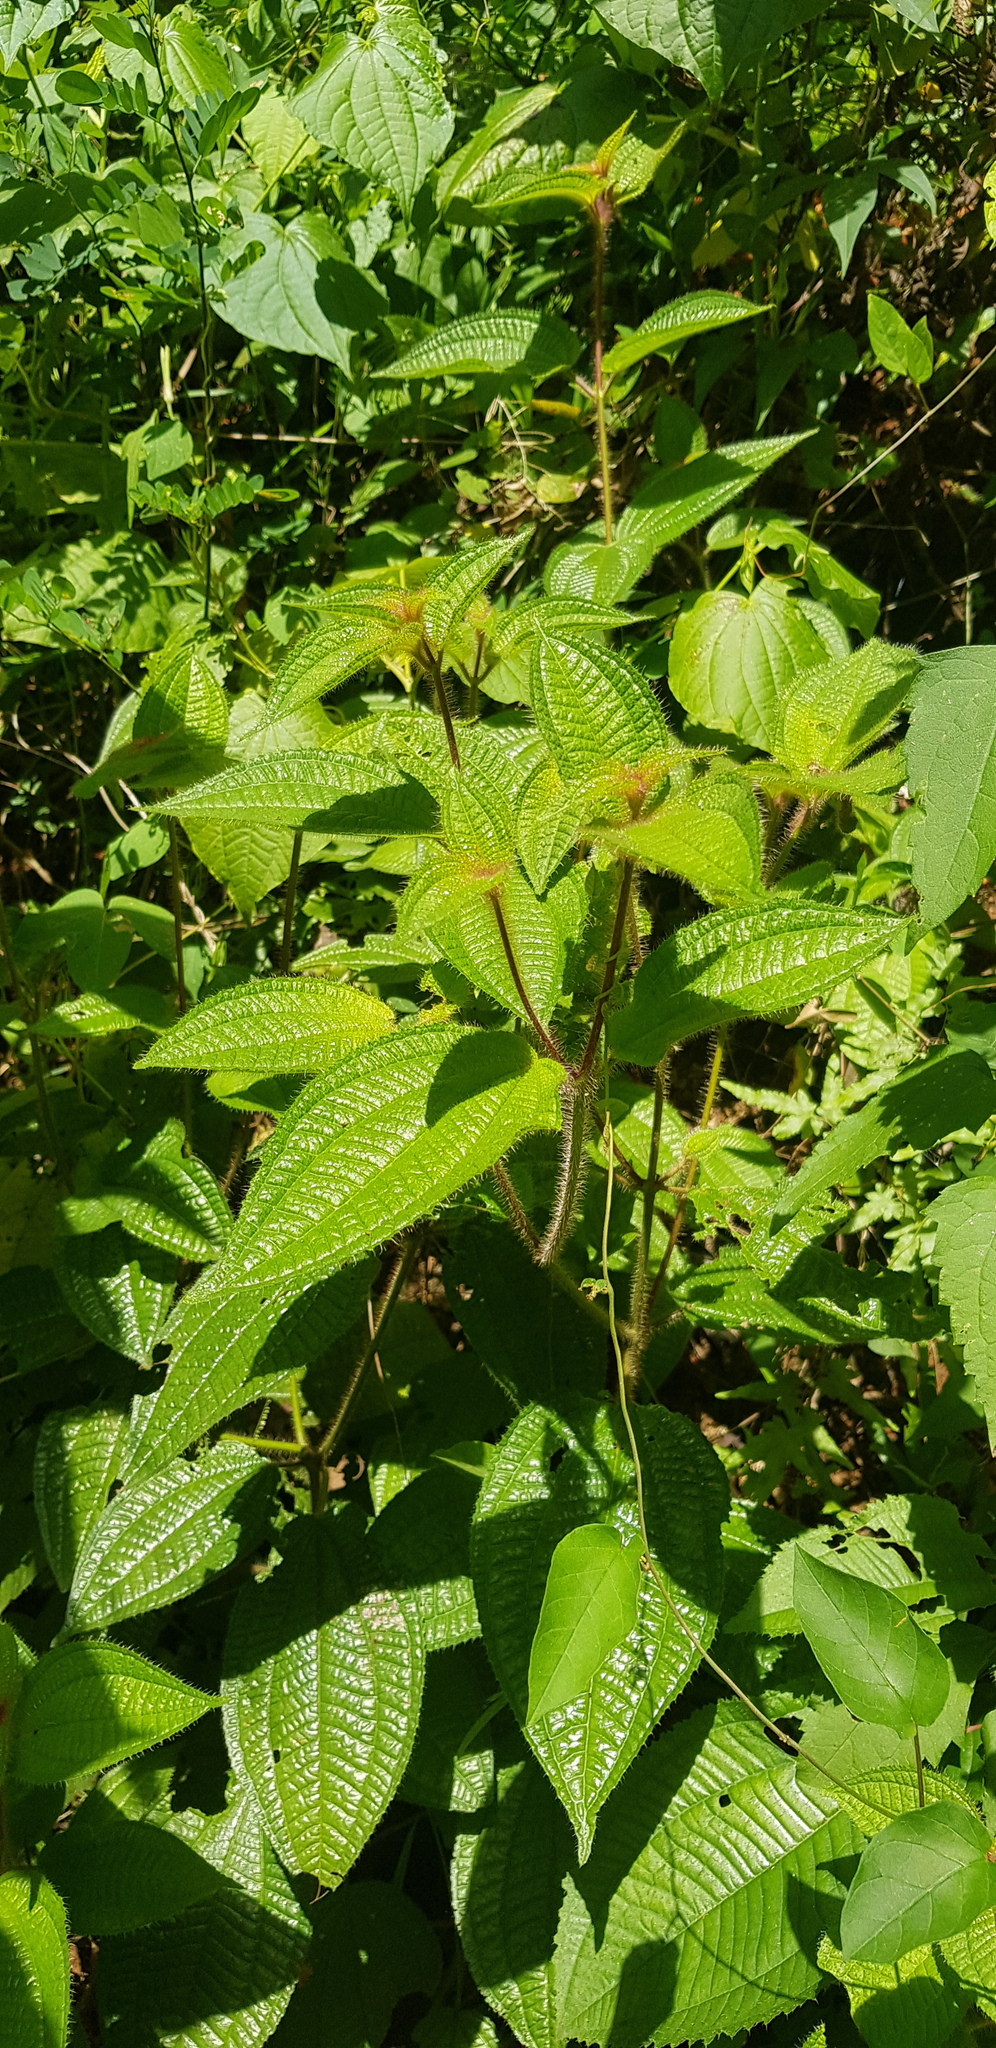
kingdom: Plantae
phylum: Tracheophyta
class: Magnoliopsida
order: Myrtales
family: Melastomataceae
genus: Miconia
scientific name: Miconia crenata
